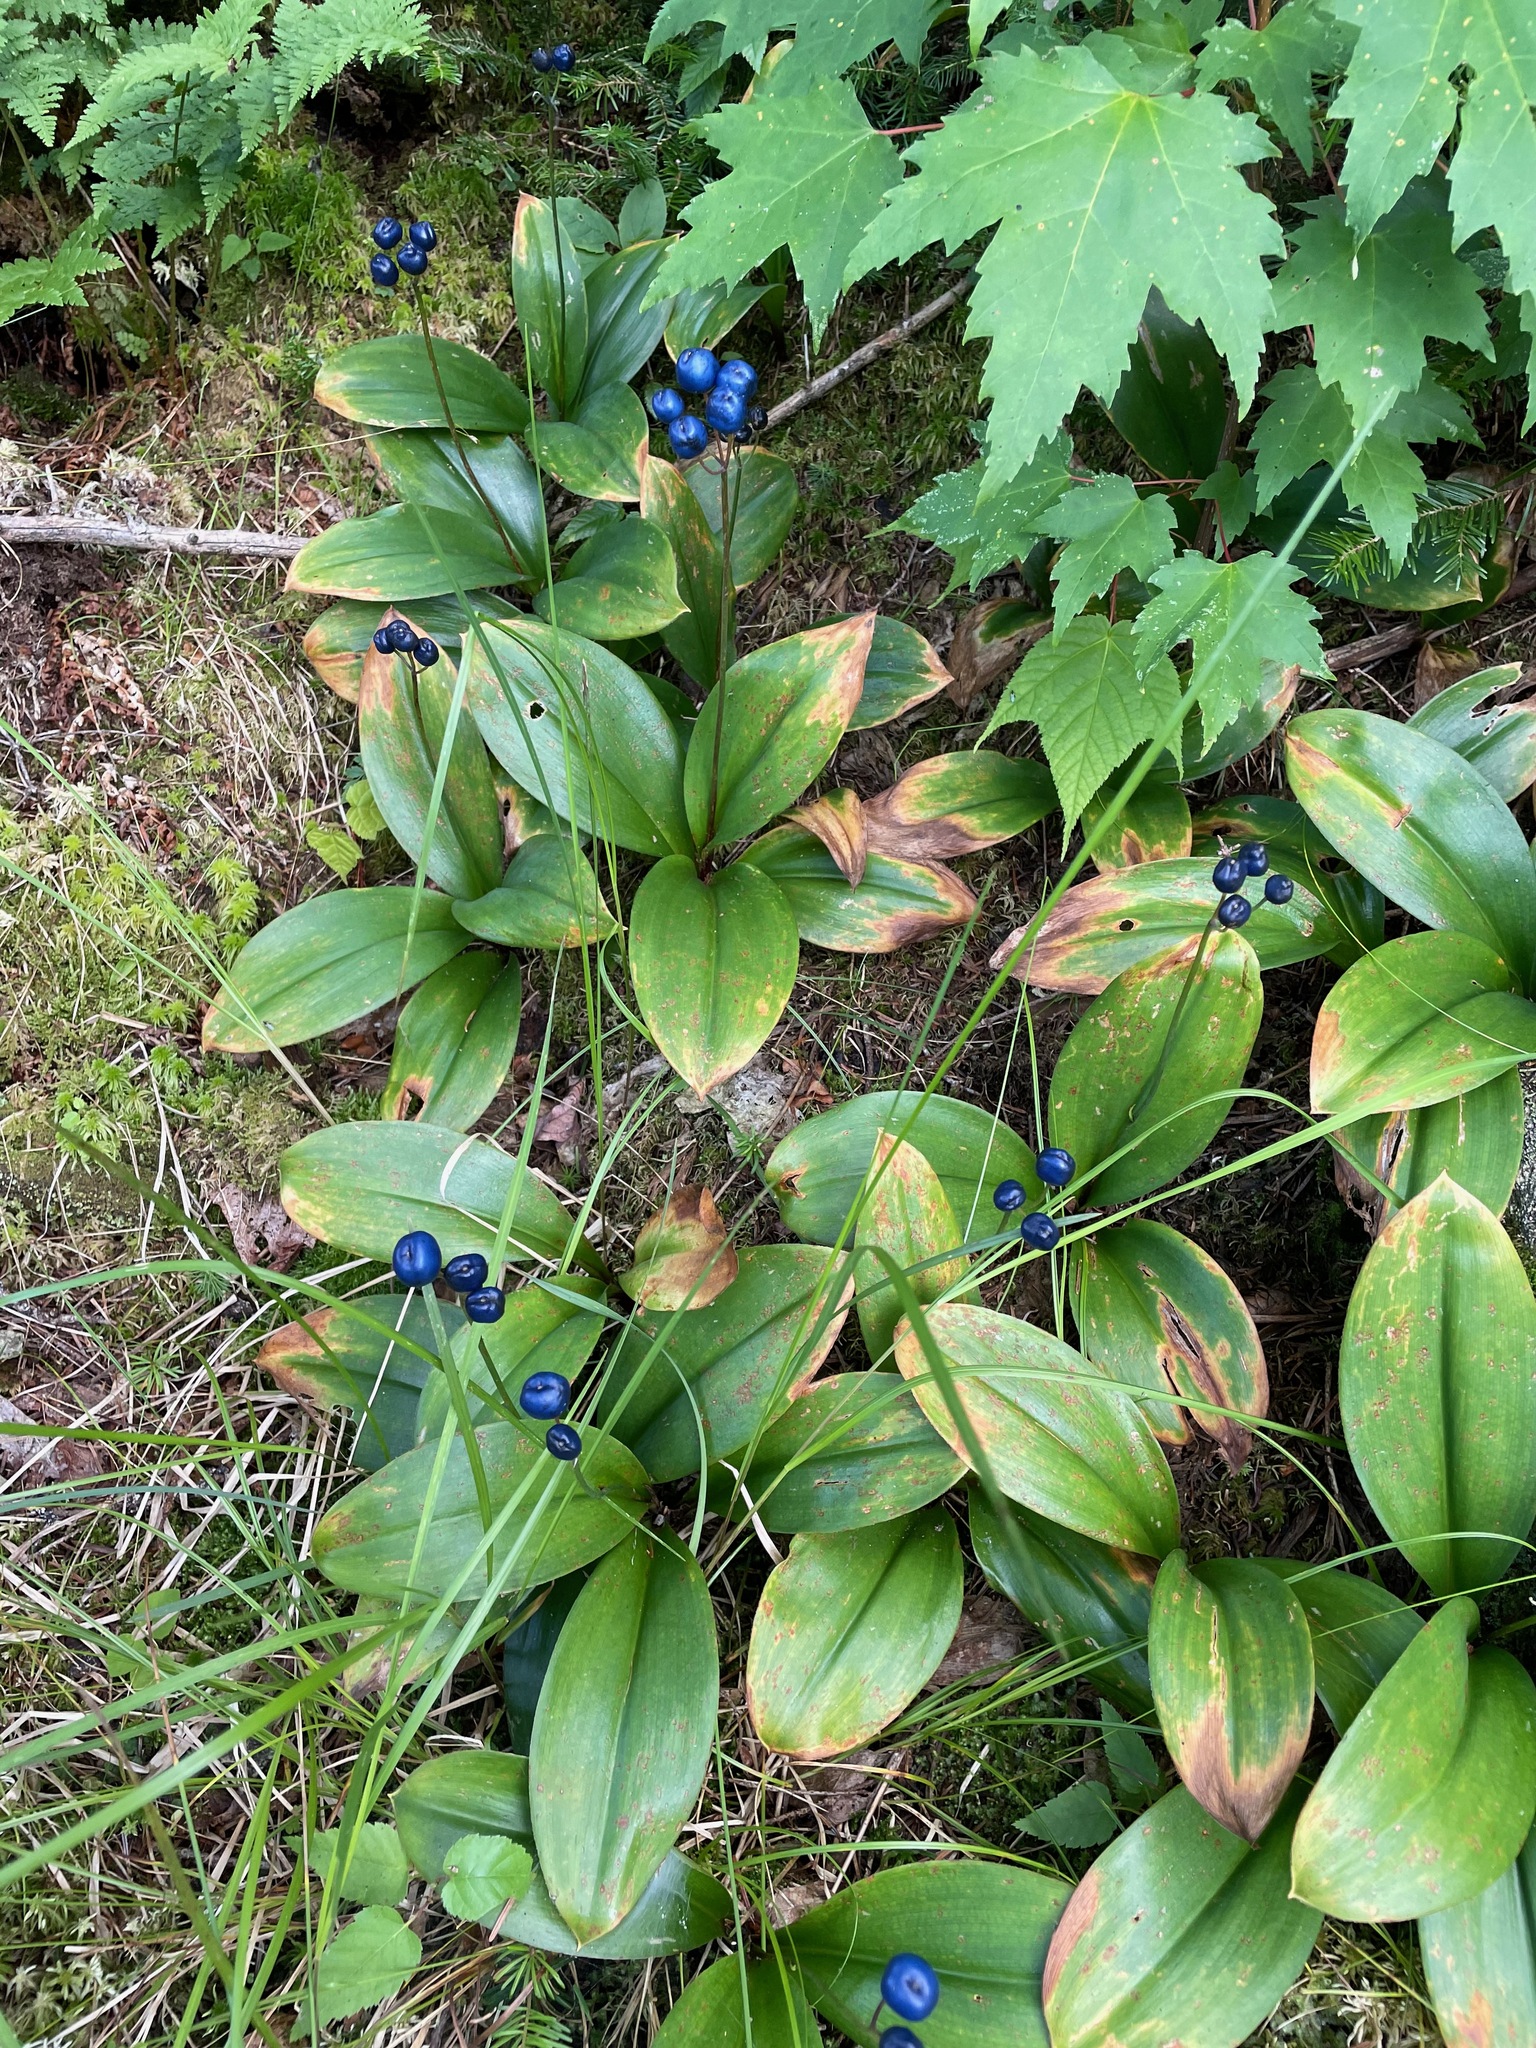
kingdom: Plantae
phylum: Tracheophyta
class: Liliopsida
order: Liliales
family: Liliaceae
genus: Clintonia
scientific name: Clintonia borealis
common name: Yellow clintonia
